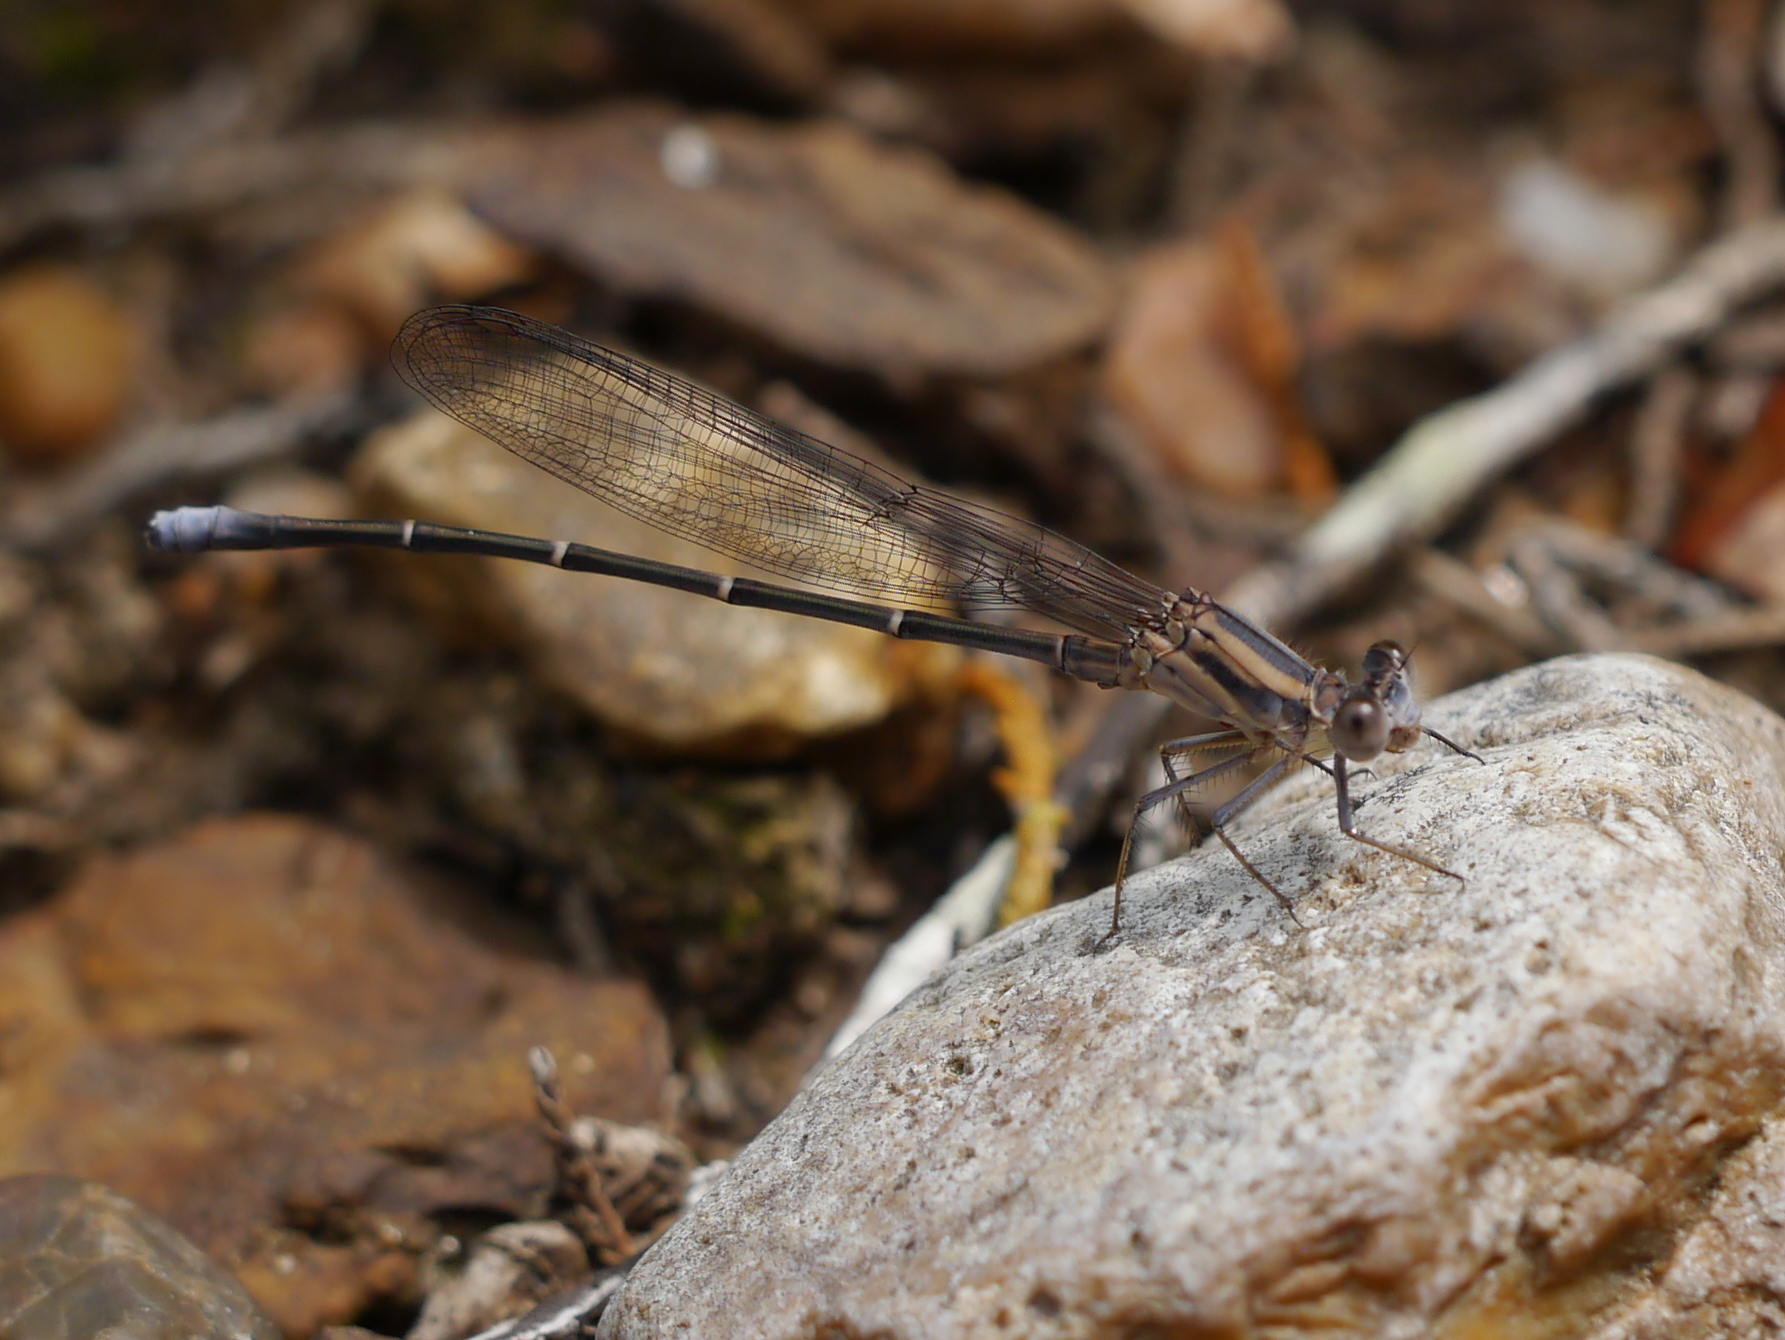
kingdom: Animalia
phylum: Arthropoda
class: Insecta
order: Odonata
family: Coenagrionidae
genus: Argia
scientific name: Argia moesta
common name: Powdered dancer
